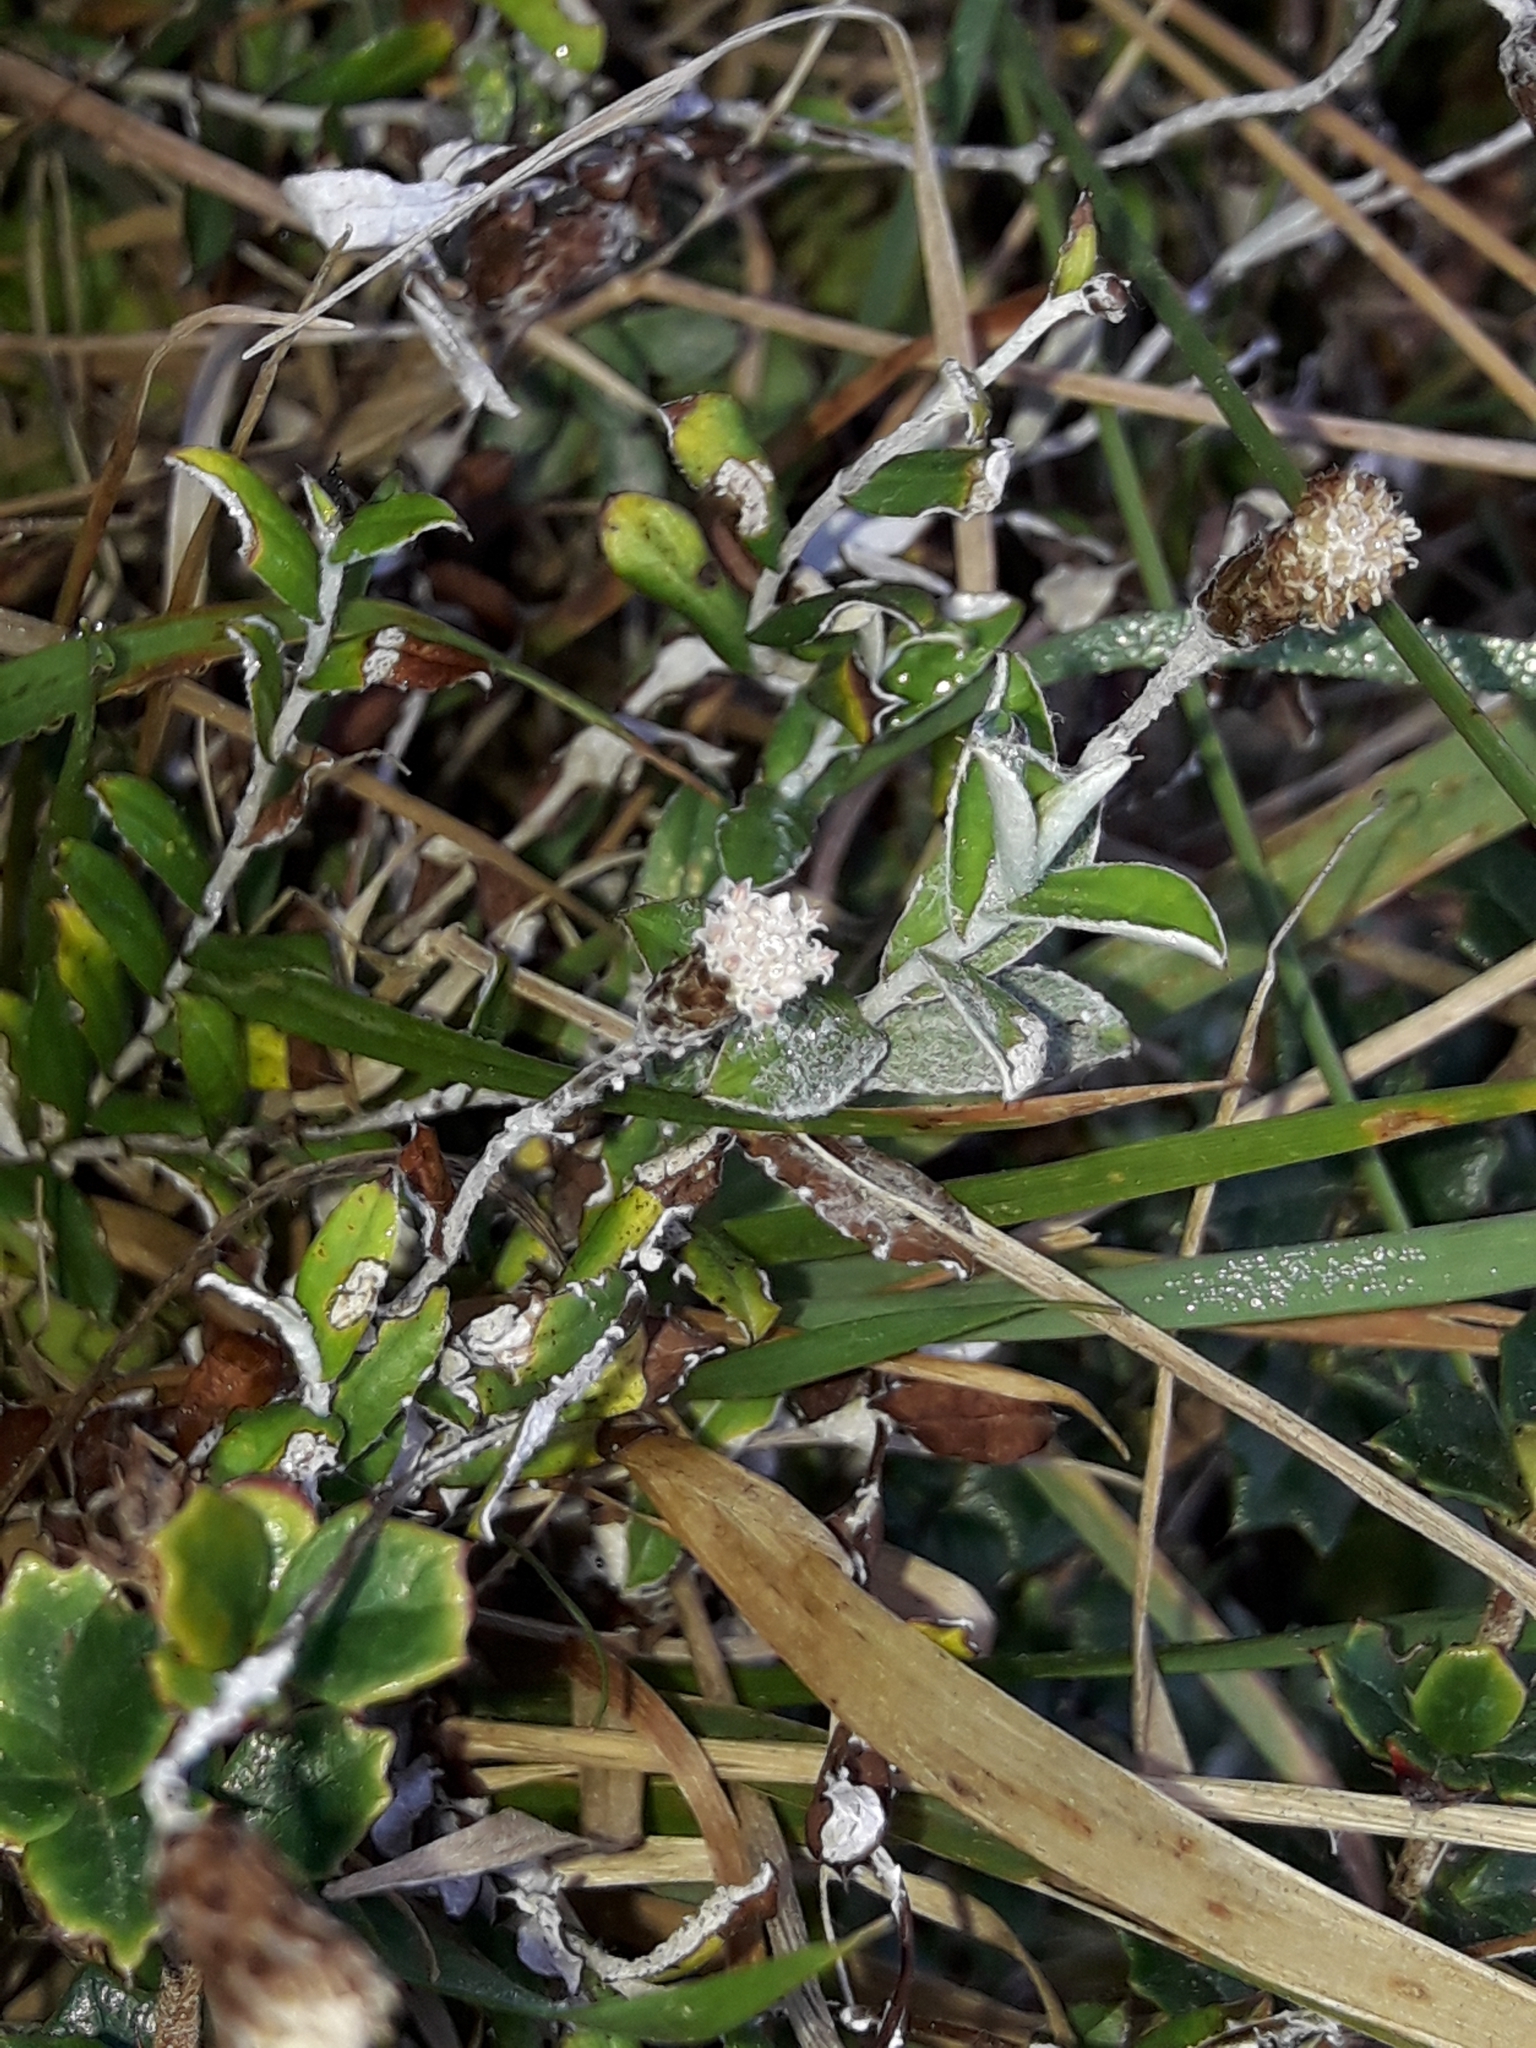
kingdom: Plantae
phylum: Tracheophyta
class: Magnoliopsida
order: Asterales
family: Asteraceae
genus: Helichrysum
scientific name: Helichrysum filicaule
